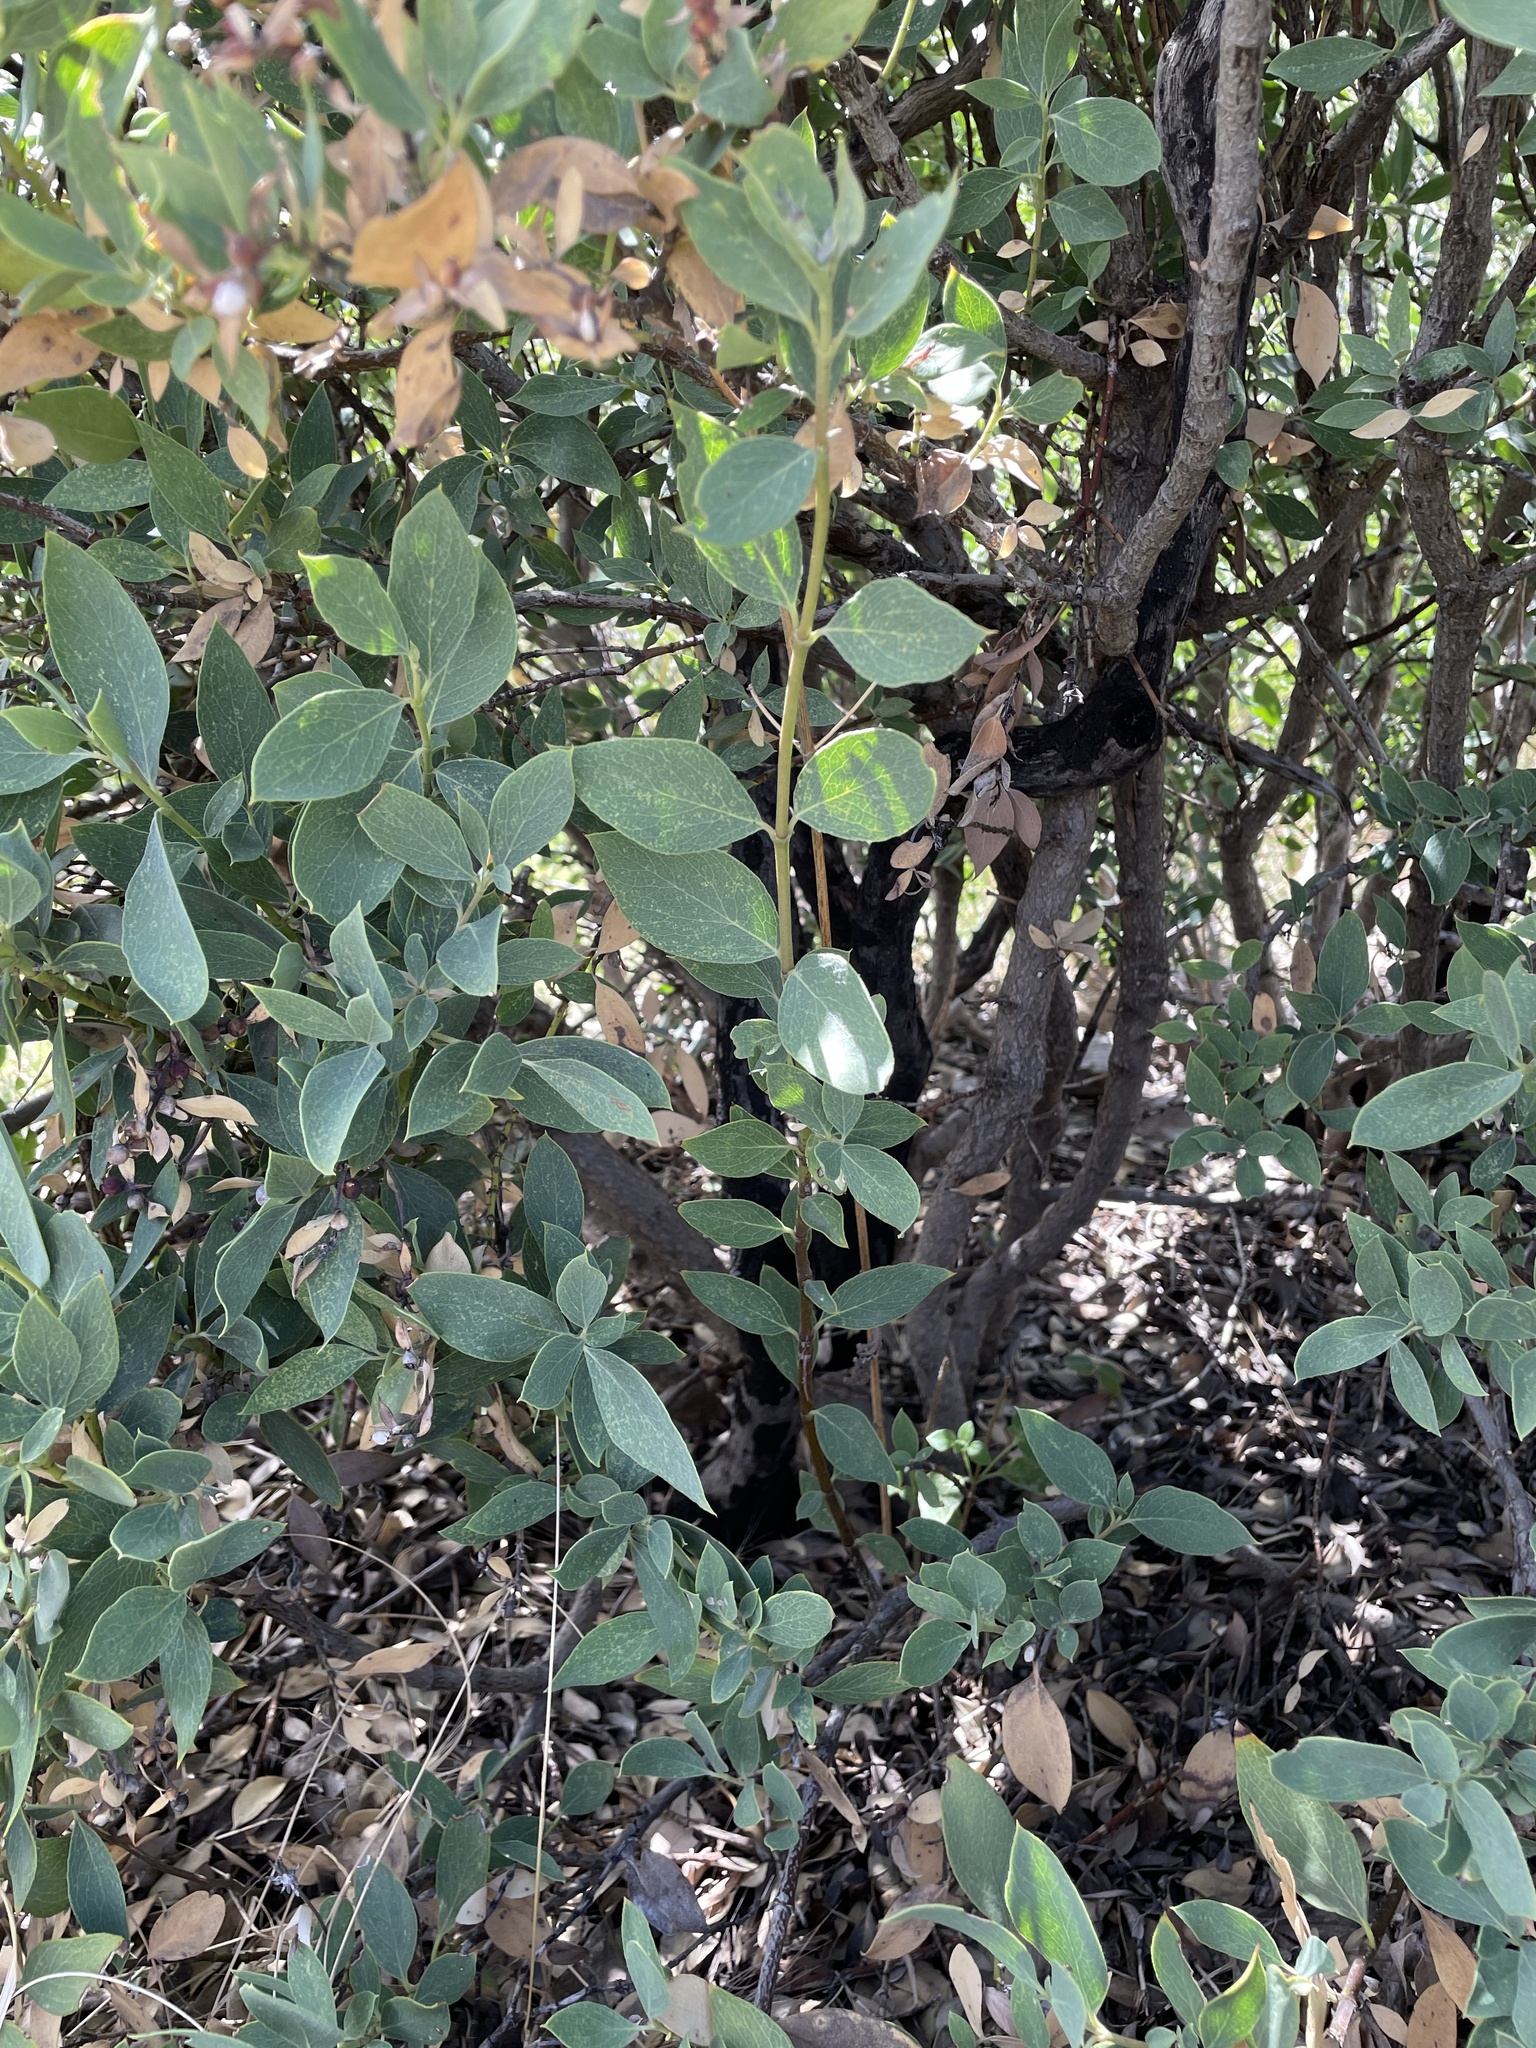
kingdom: Plantae
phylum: Tracheophyta
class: Magnoliopsida
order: Garryales
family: Garryaceae
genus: Garrya
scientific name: Garrya wrightii
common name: Wright's silktassel
